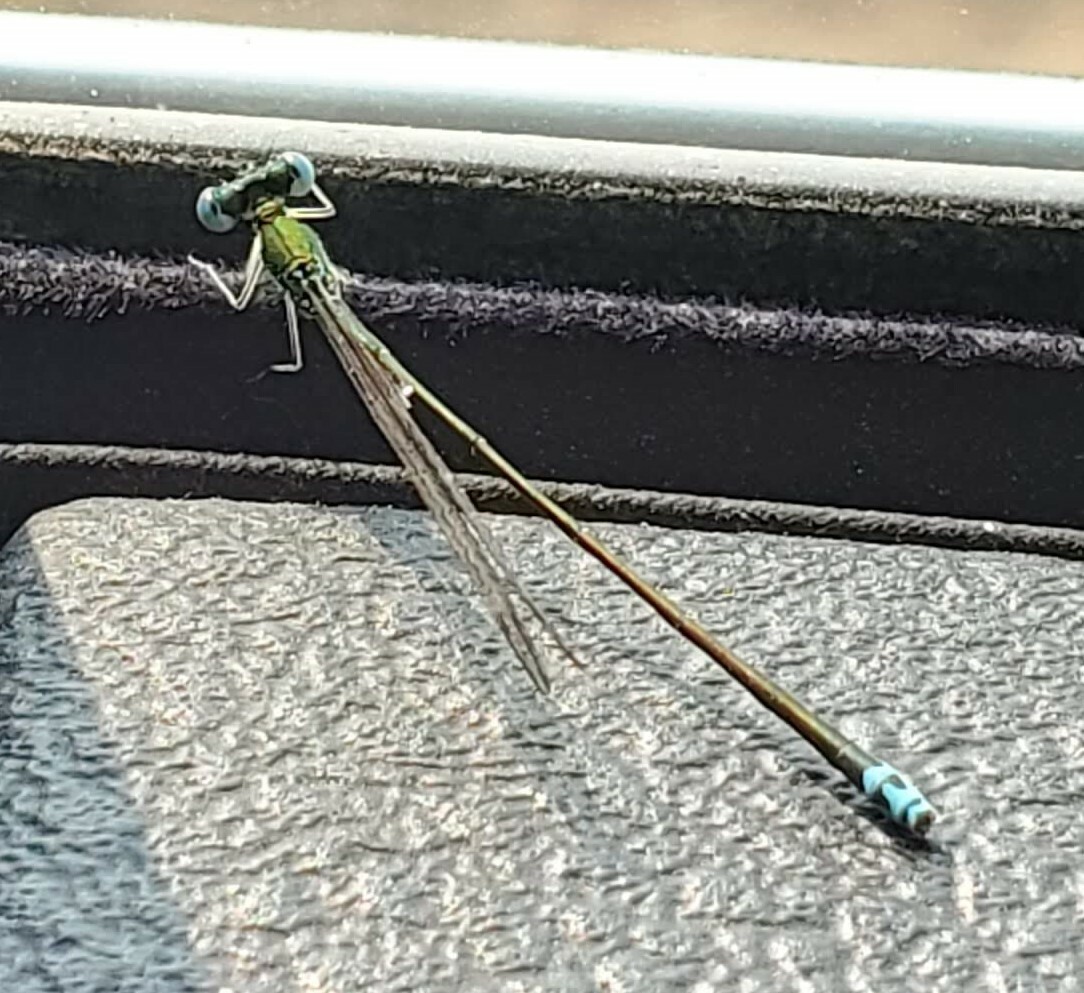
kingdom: Animalia
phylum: Arthropoda
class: Insecta
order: Odonata
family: Coenagrionidae
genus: Nehalennia
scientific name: Nehalennia irene
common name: Sedge sprite
